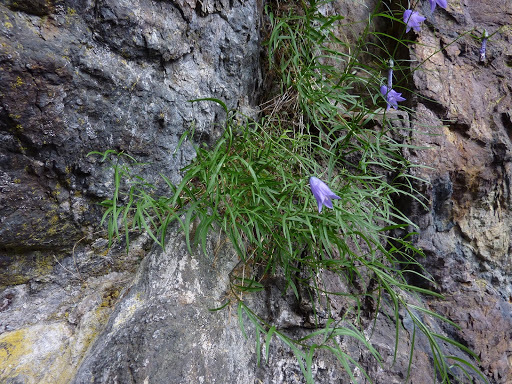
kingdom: Plantae
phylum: Tracheophyta
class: Magnoliopsida
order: Asterales
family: Campanulaceae
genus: Campanula
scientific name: Campanula alaskana
